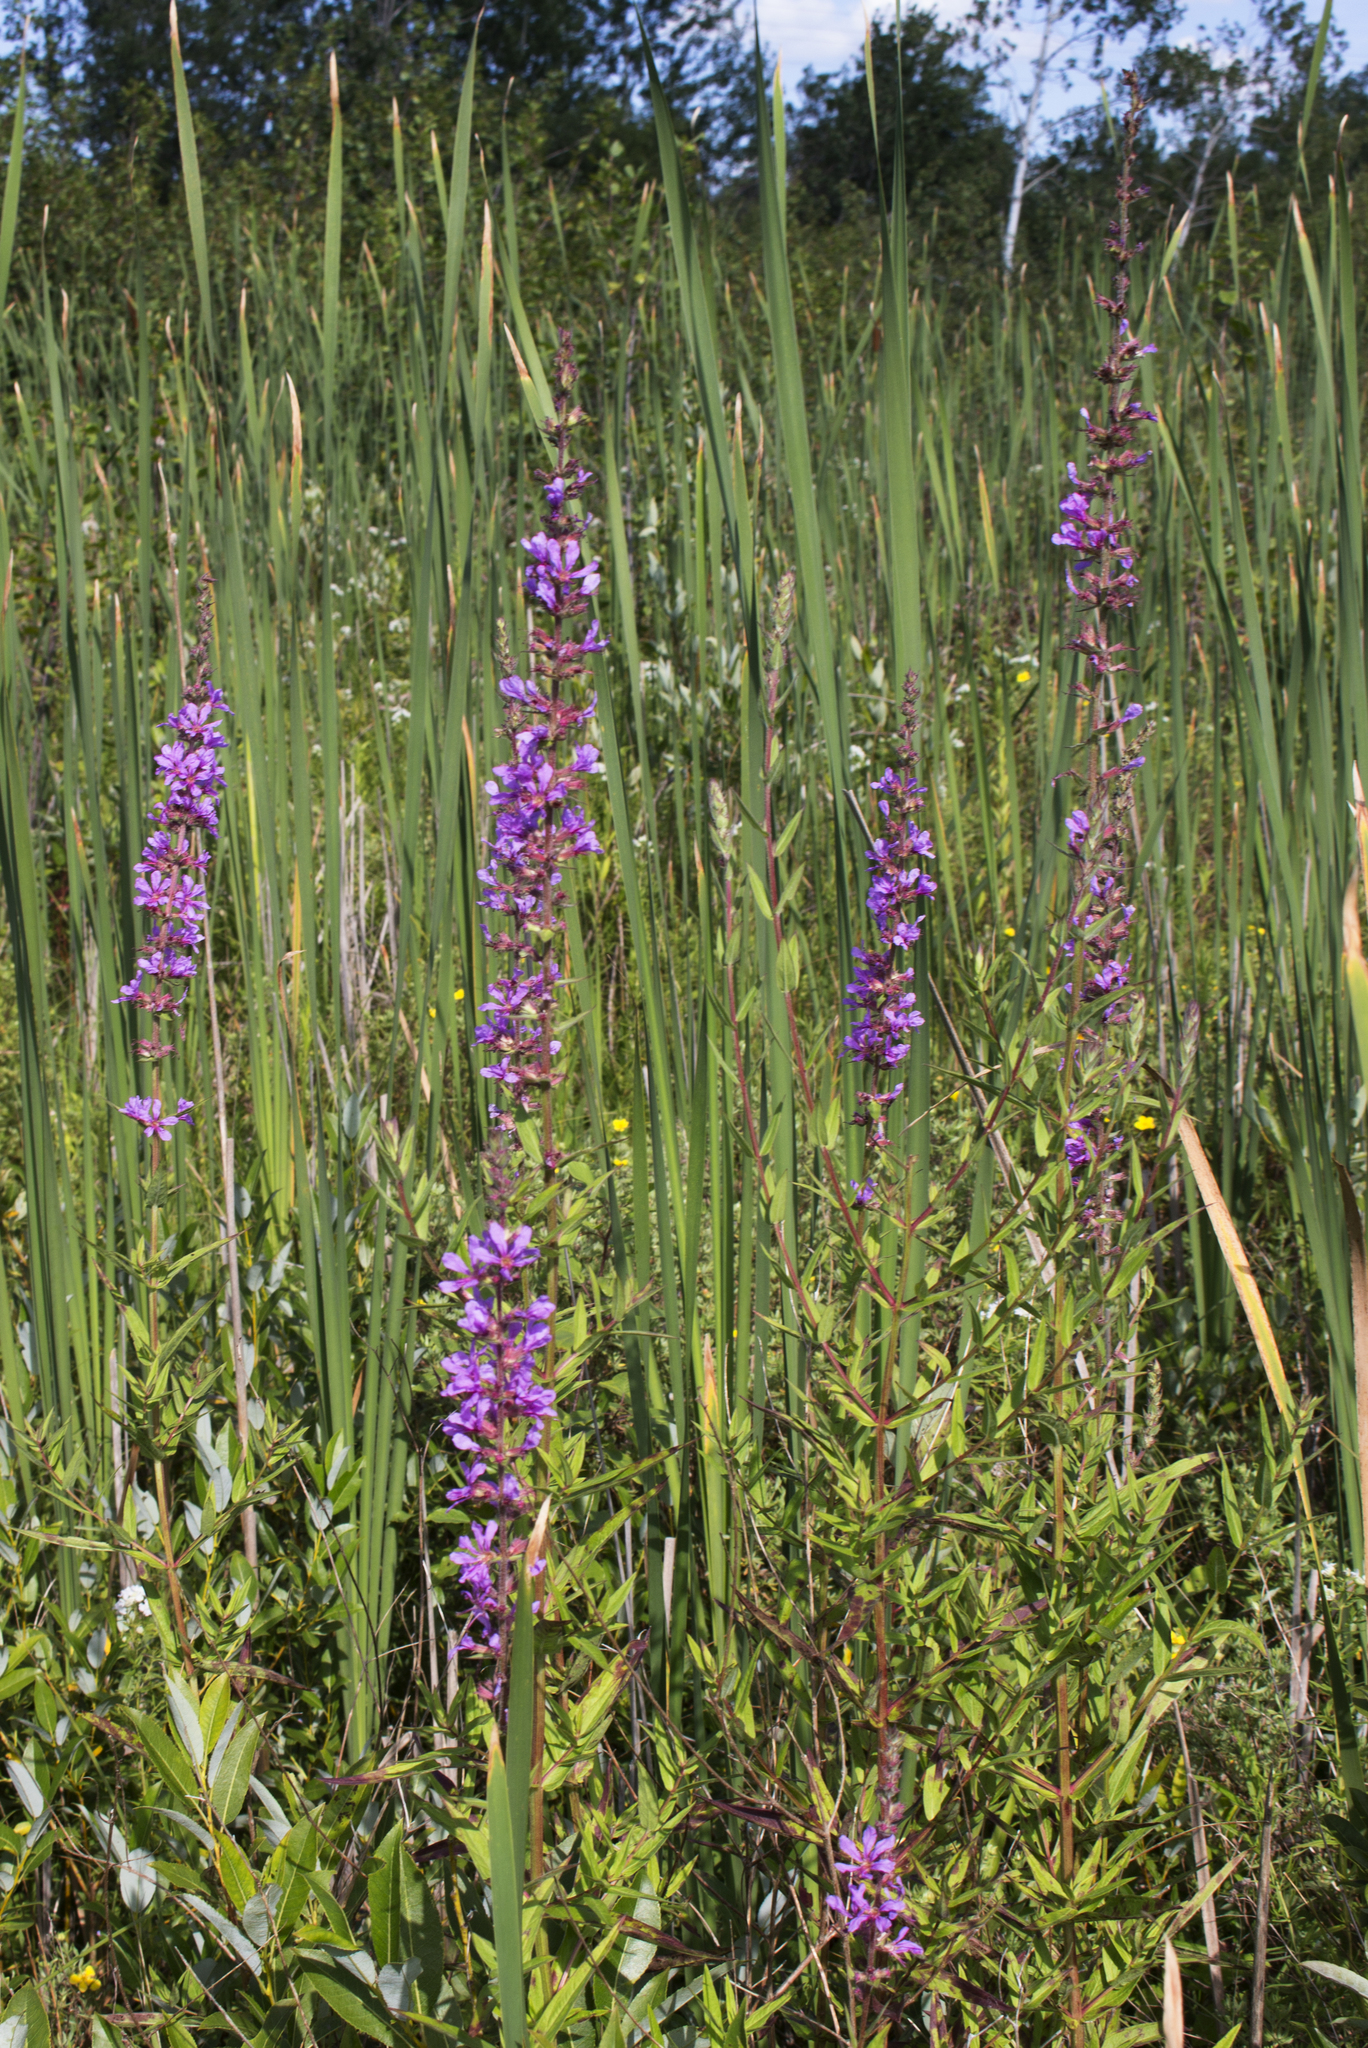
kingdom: Plantae
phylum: Tracheophyta
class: Magnoliopsida
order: Myrtales
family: Lythraceae
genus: Lythrum
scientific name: Lythrum salicaria
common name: Purple loosestrife
